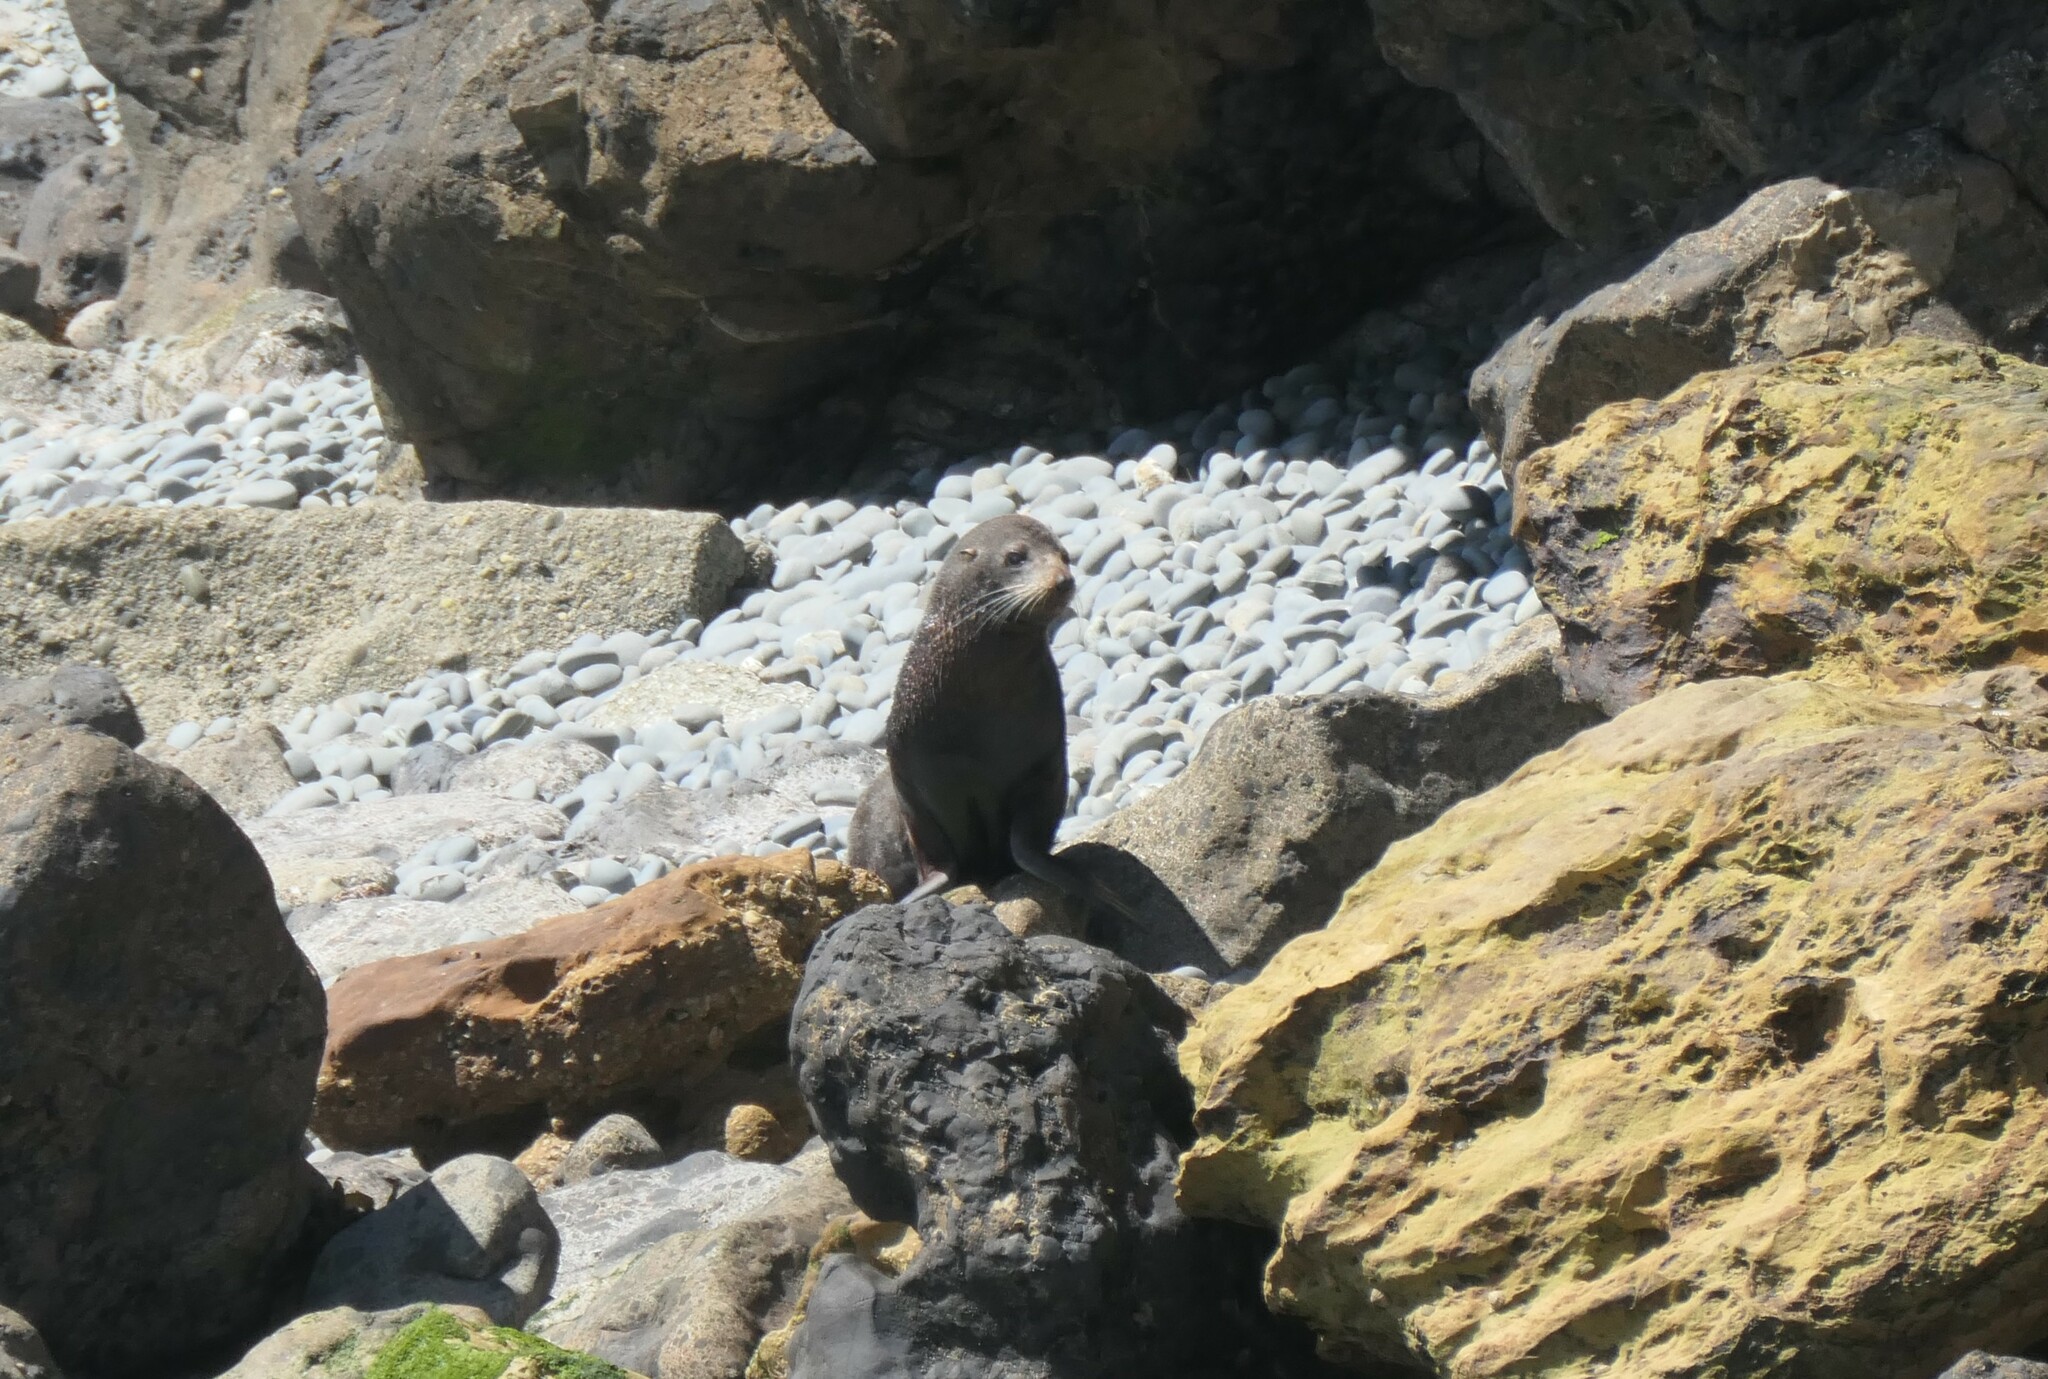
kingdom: Animalia
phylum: Chordata
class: Mammalia
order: Carnivora
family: Otariidae
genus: Arctocephalus
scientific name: Arctocephalus forsteri
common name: New zealand fur seal
